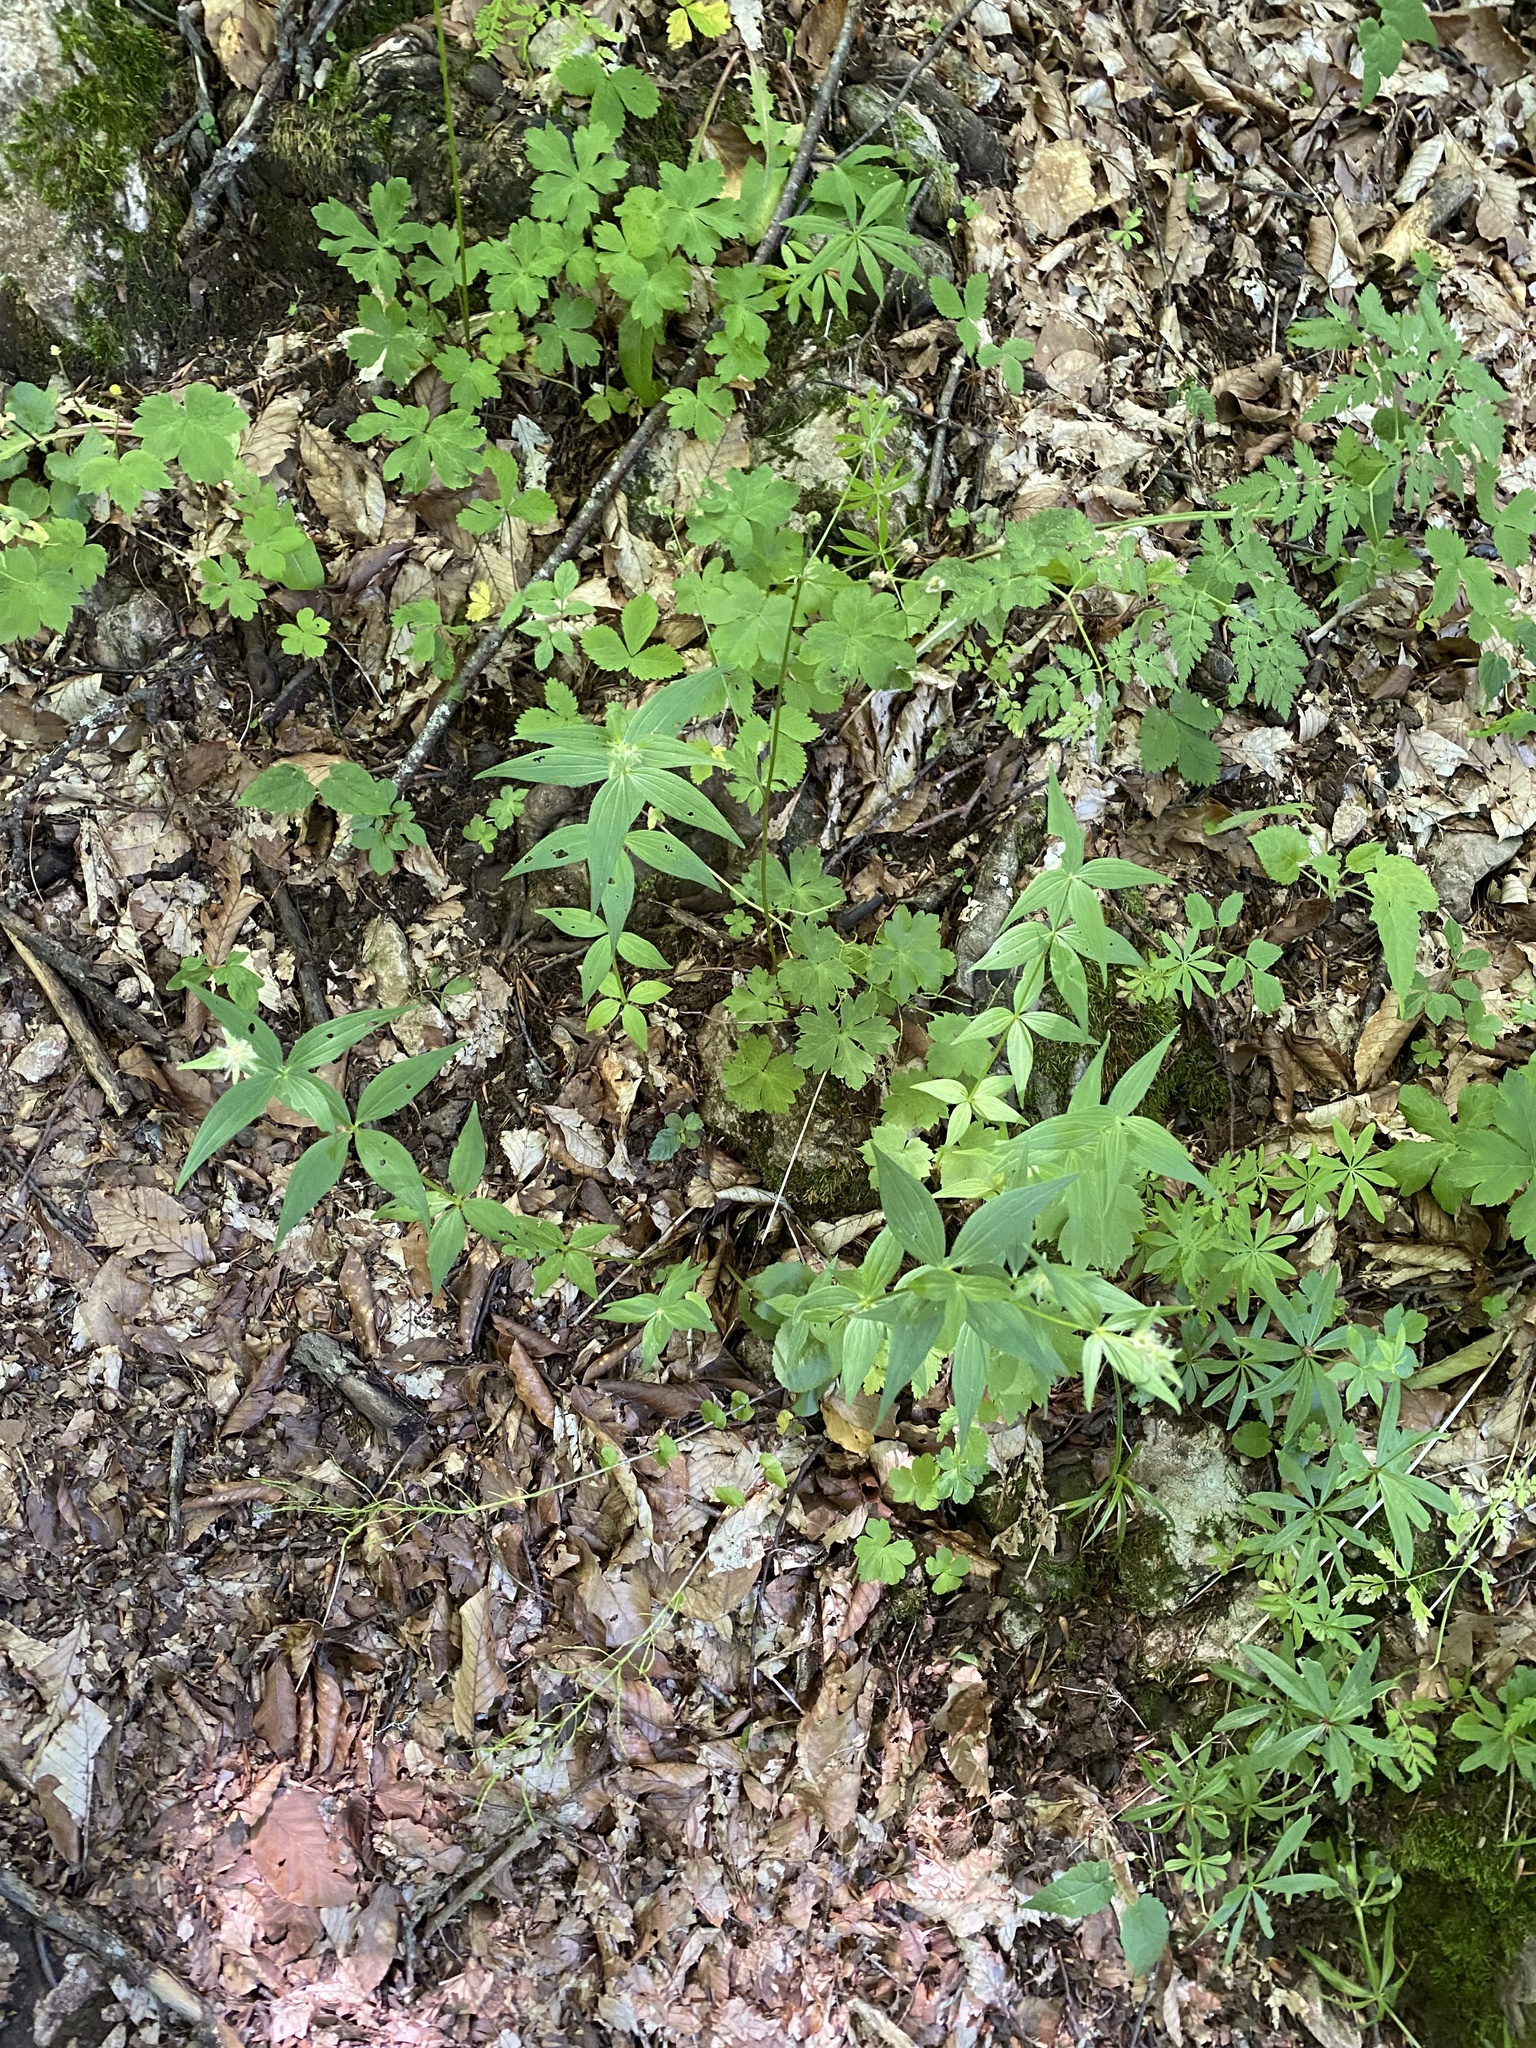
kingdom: Plantae
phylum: Tracheophyta
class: Magnoliopsida
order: Gentianales
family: Rubiaceae
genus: Asperula
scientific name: Asperula taurina
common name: Pink woodruff
